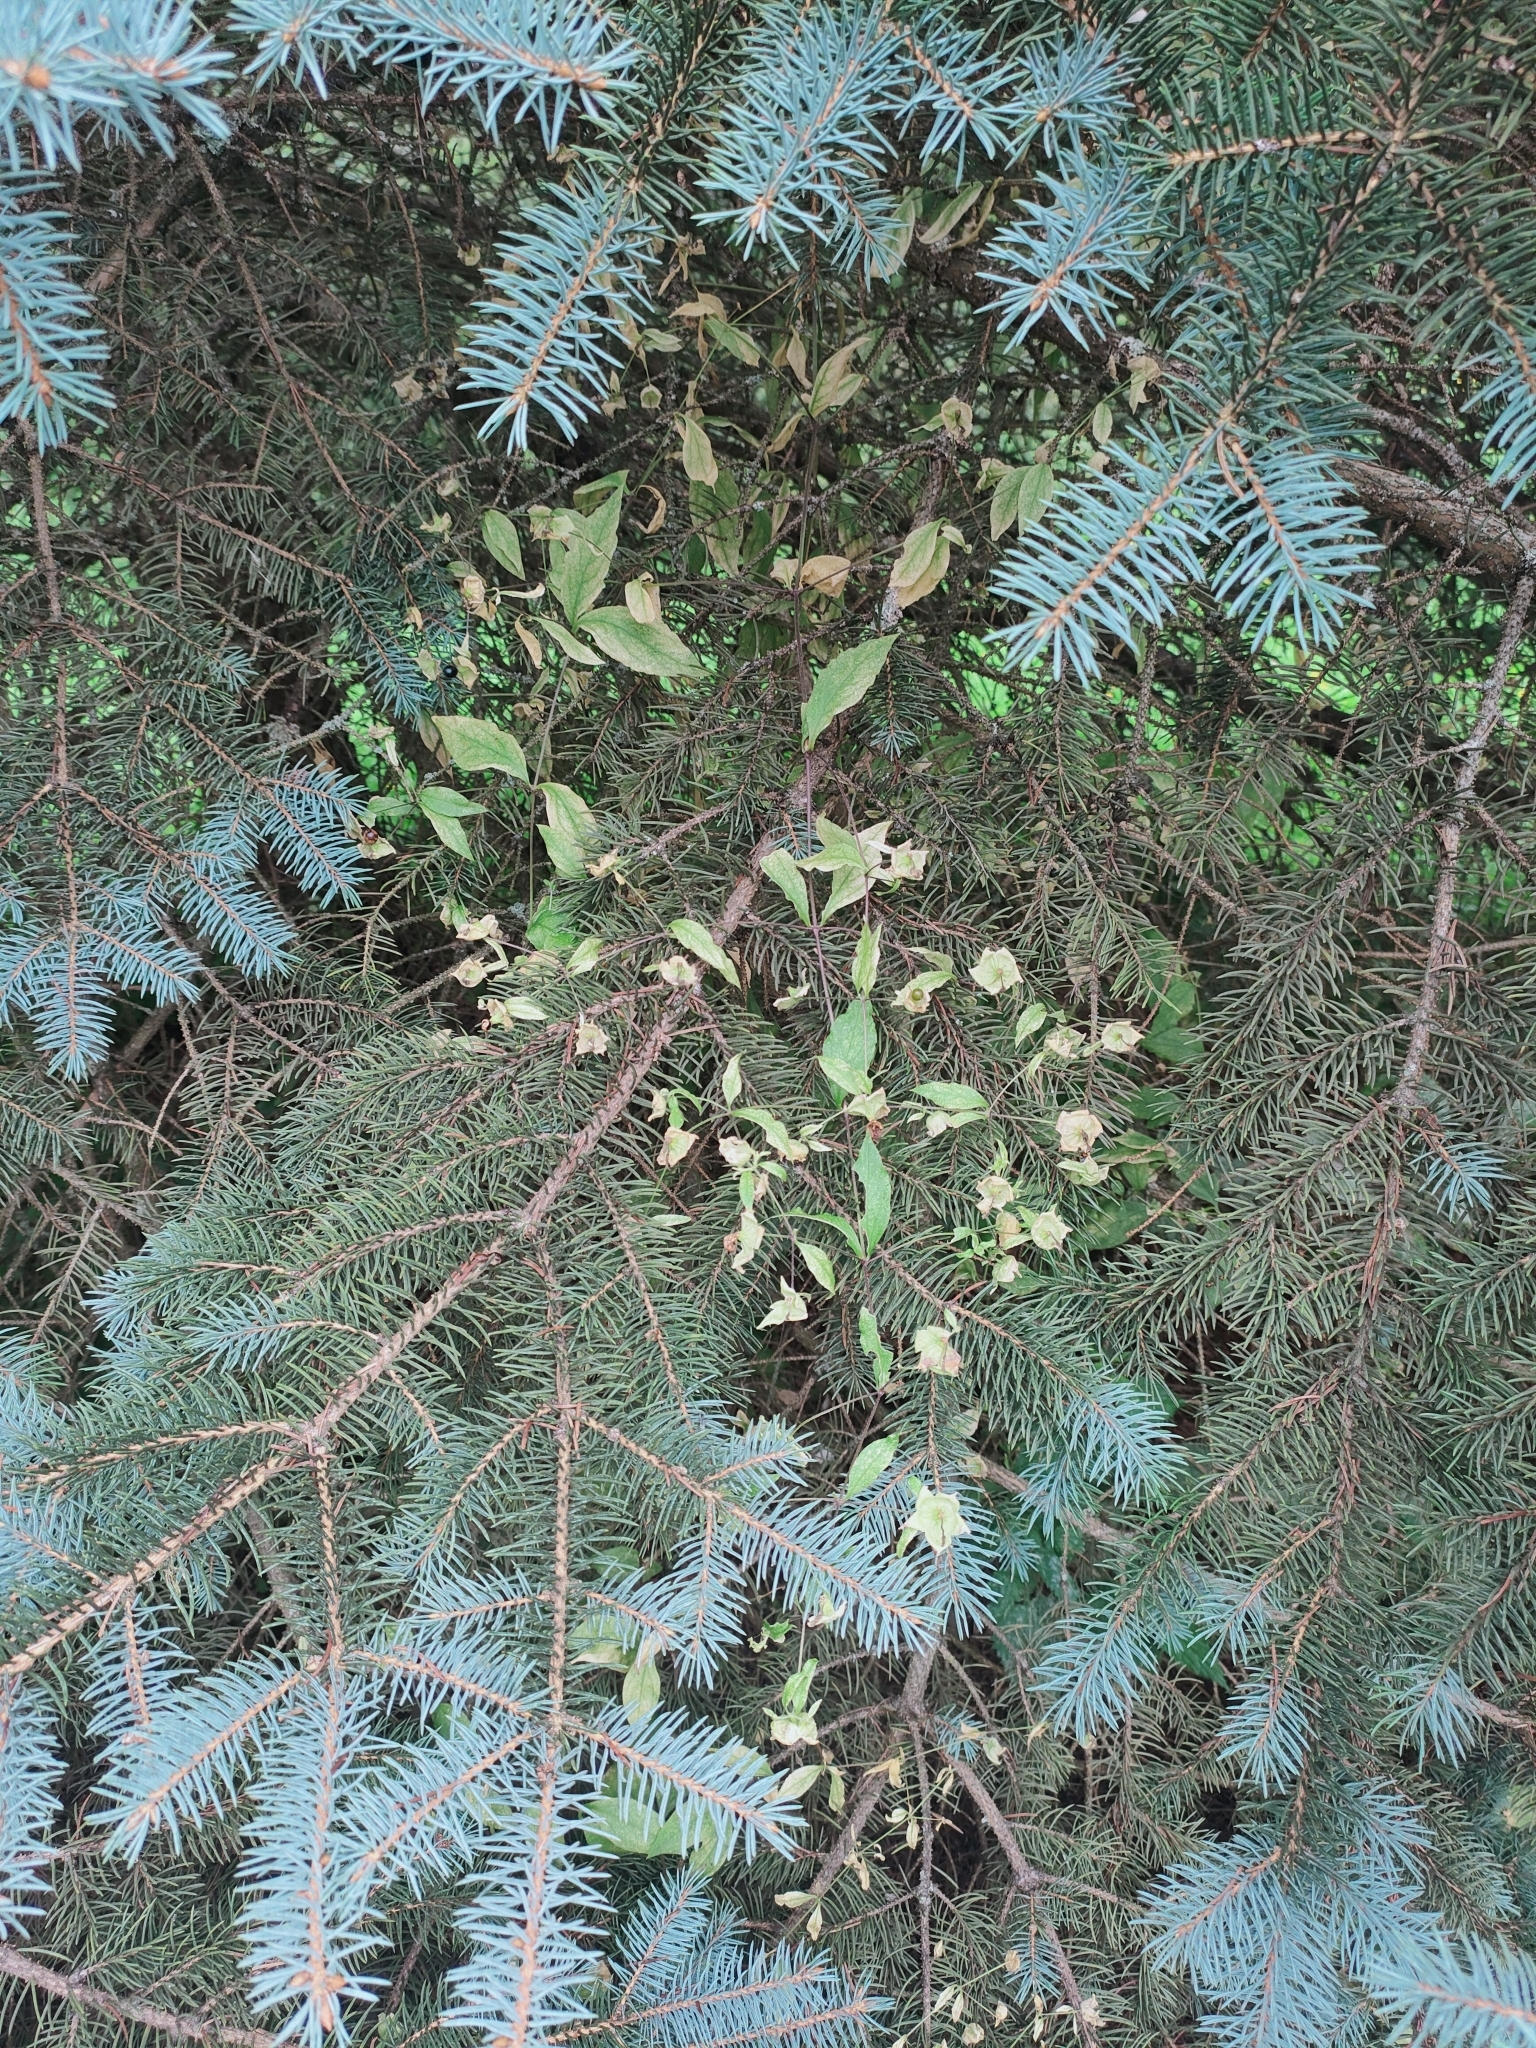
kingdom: Plantae
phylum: Tracheophyta
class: Magnoliopsida
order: Caryophyllales
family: Caryophyllaceae
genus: Silene
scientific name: Silene baccifera
